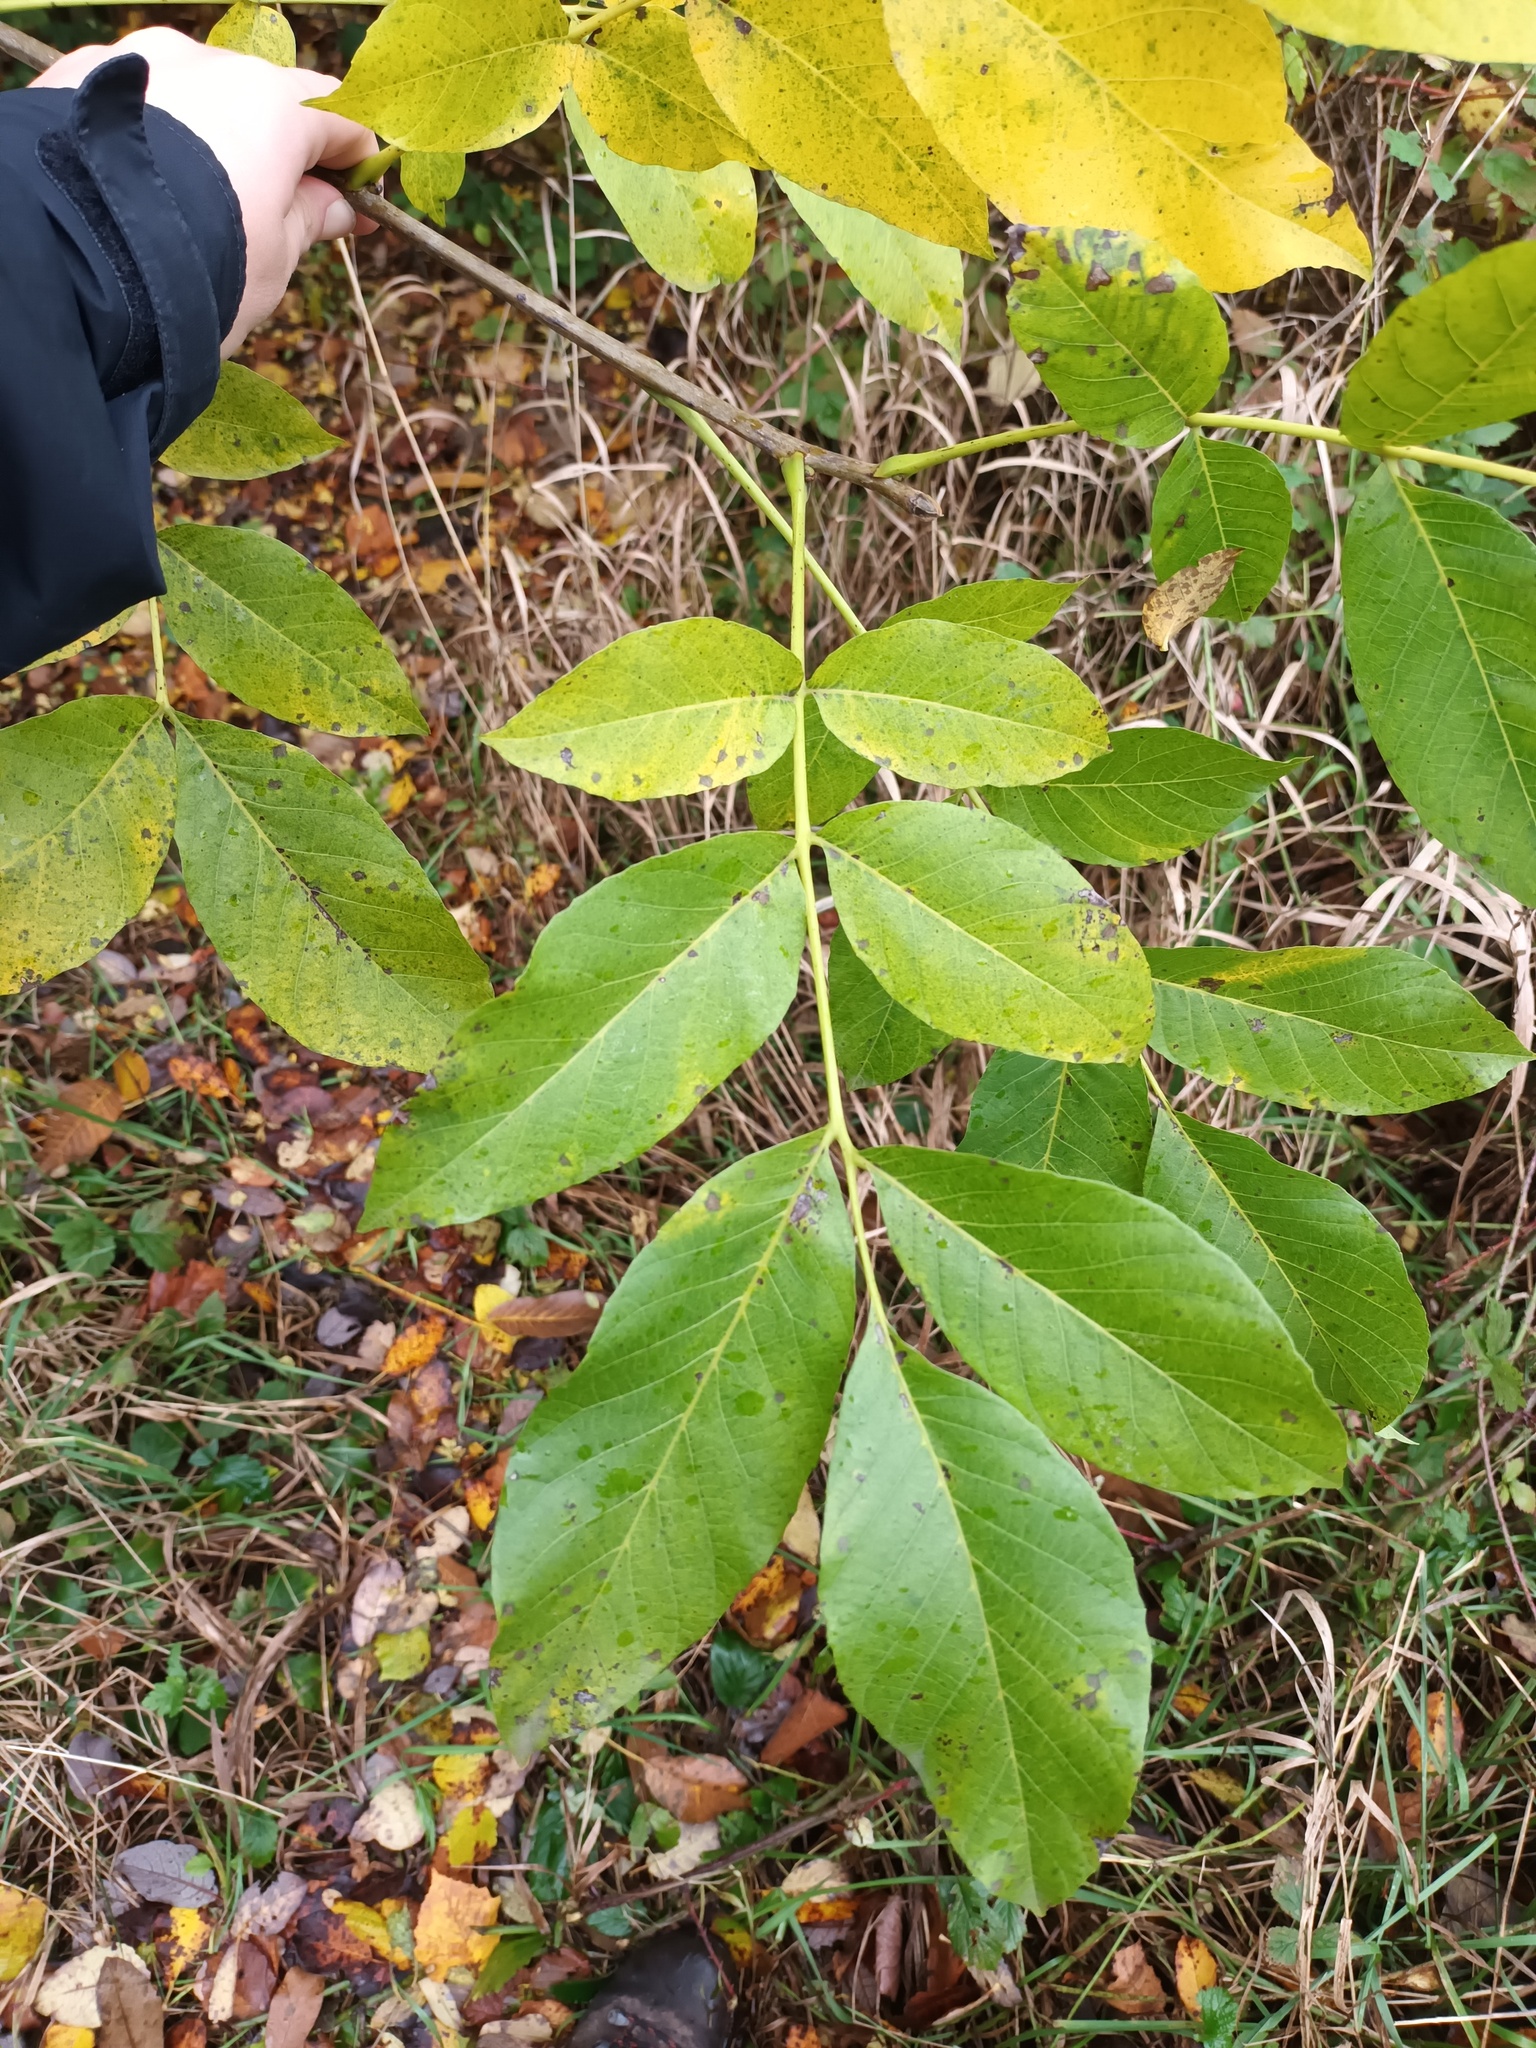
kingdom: Plantae
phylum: Tracheophyta
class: Magnoliopsida
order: Fagales
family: Juglandaceae
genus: Juglans
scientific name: Juglans regia
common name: Walnut
